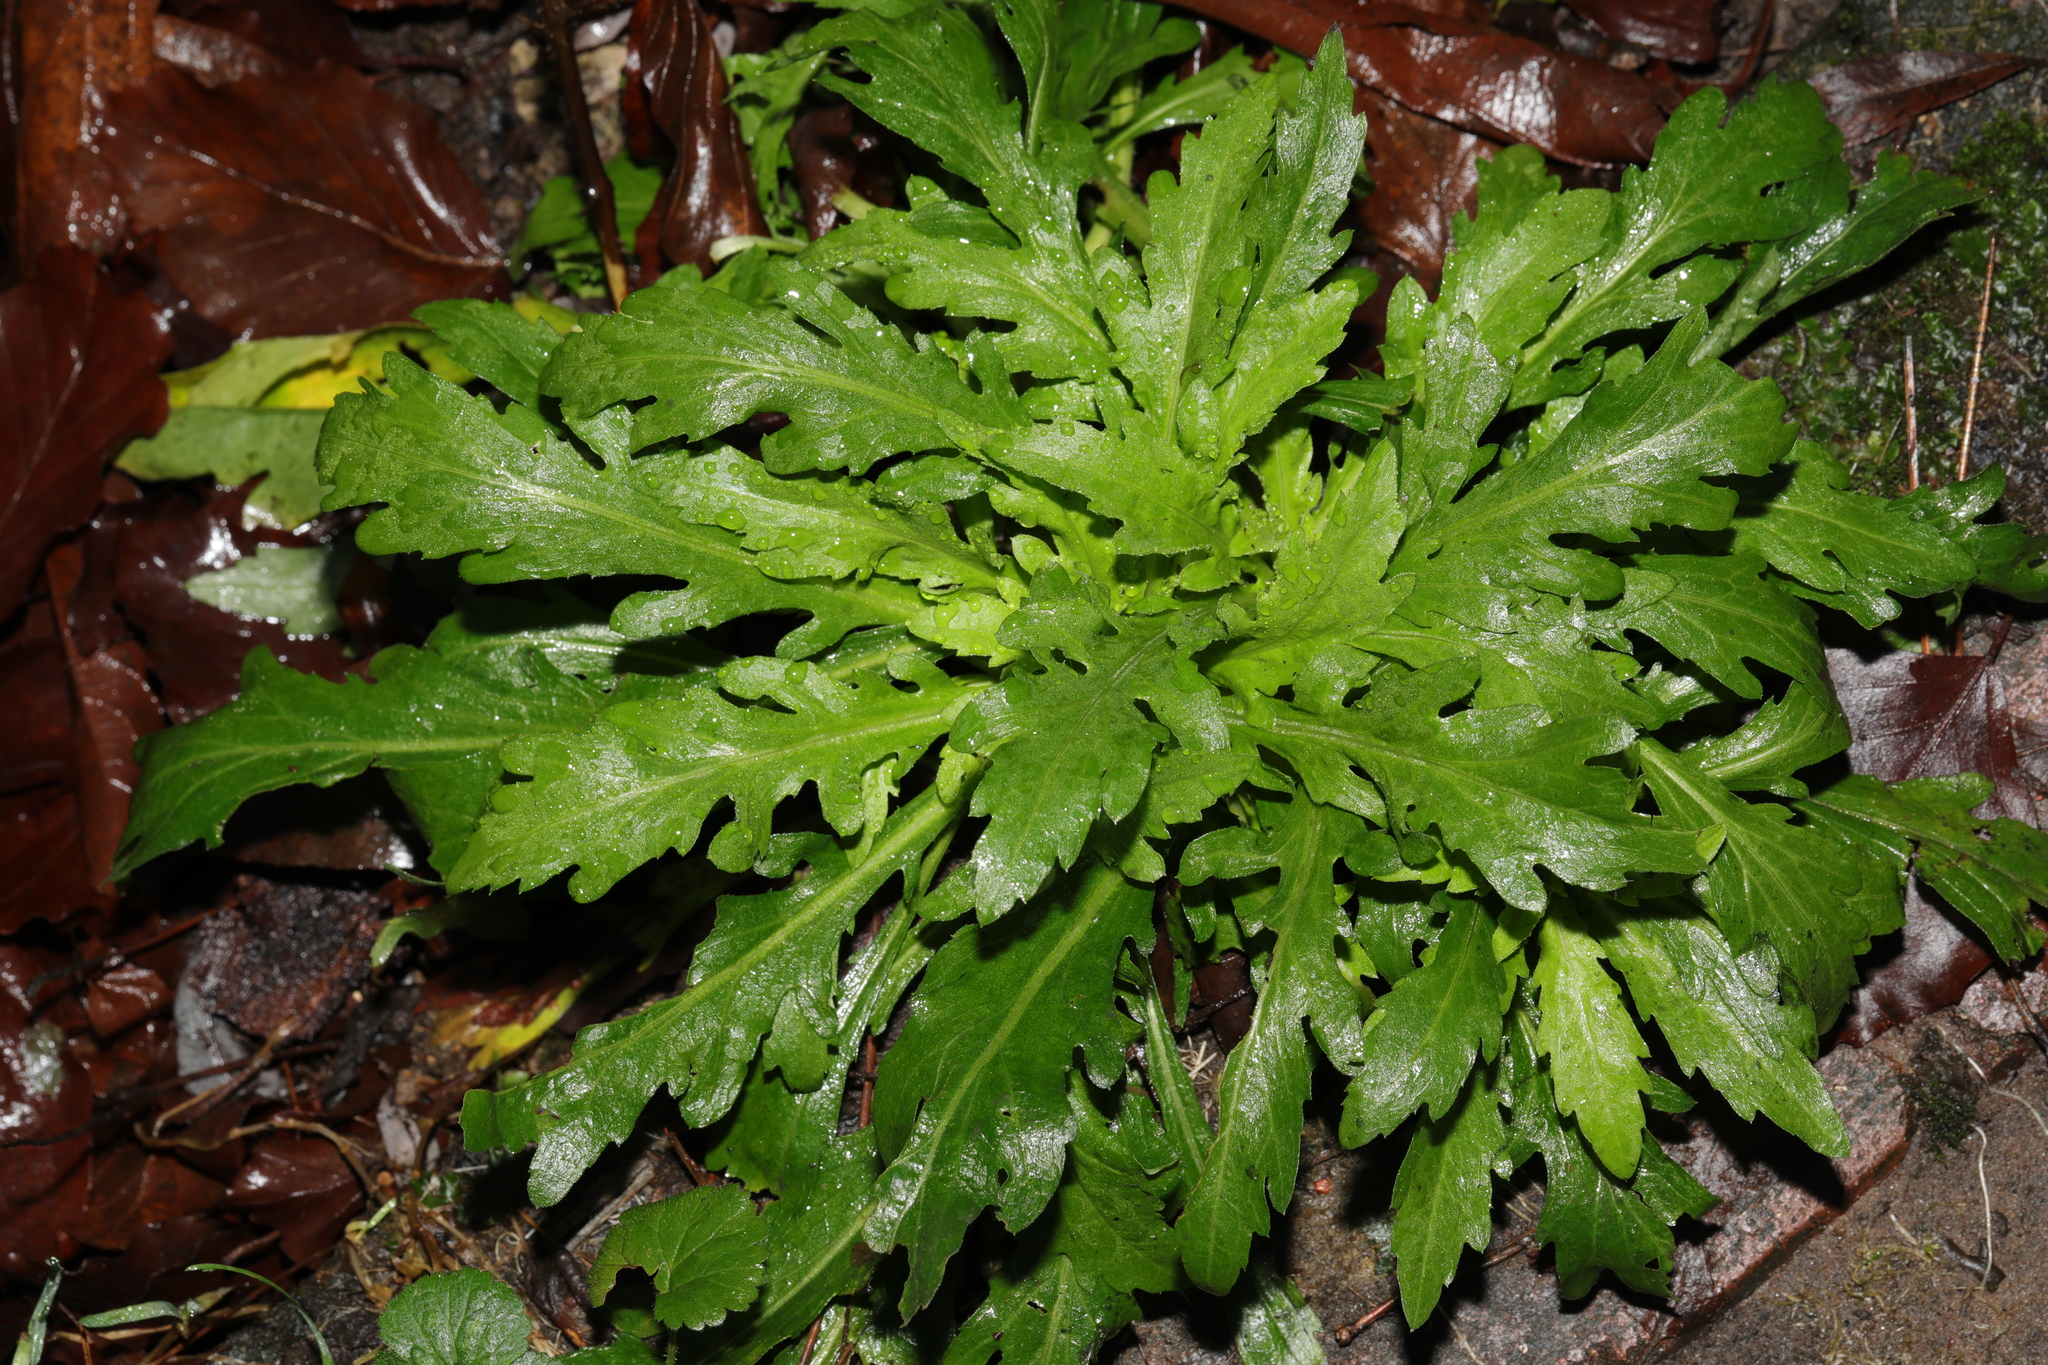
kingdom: Plantae
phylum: Tracheophyta
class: Magnoliopsida
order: Asterales
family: Asteraceae
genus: Erigeron
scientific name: Erigeron sumatrensis
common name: Daisy
